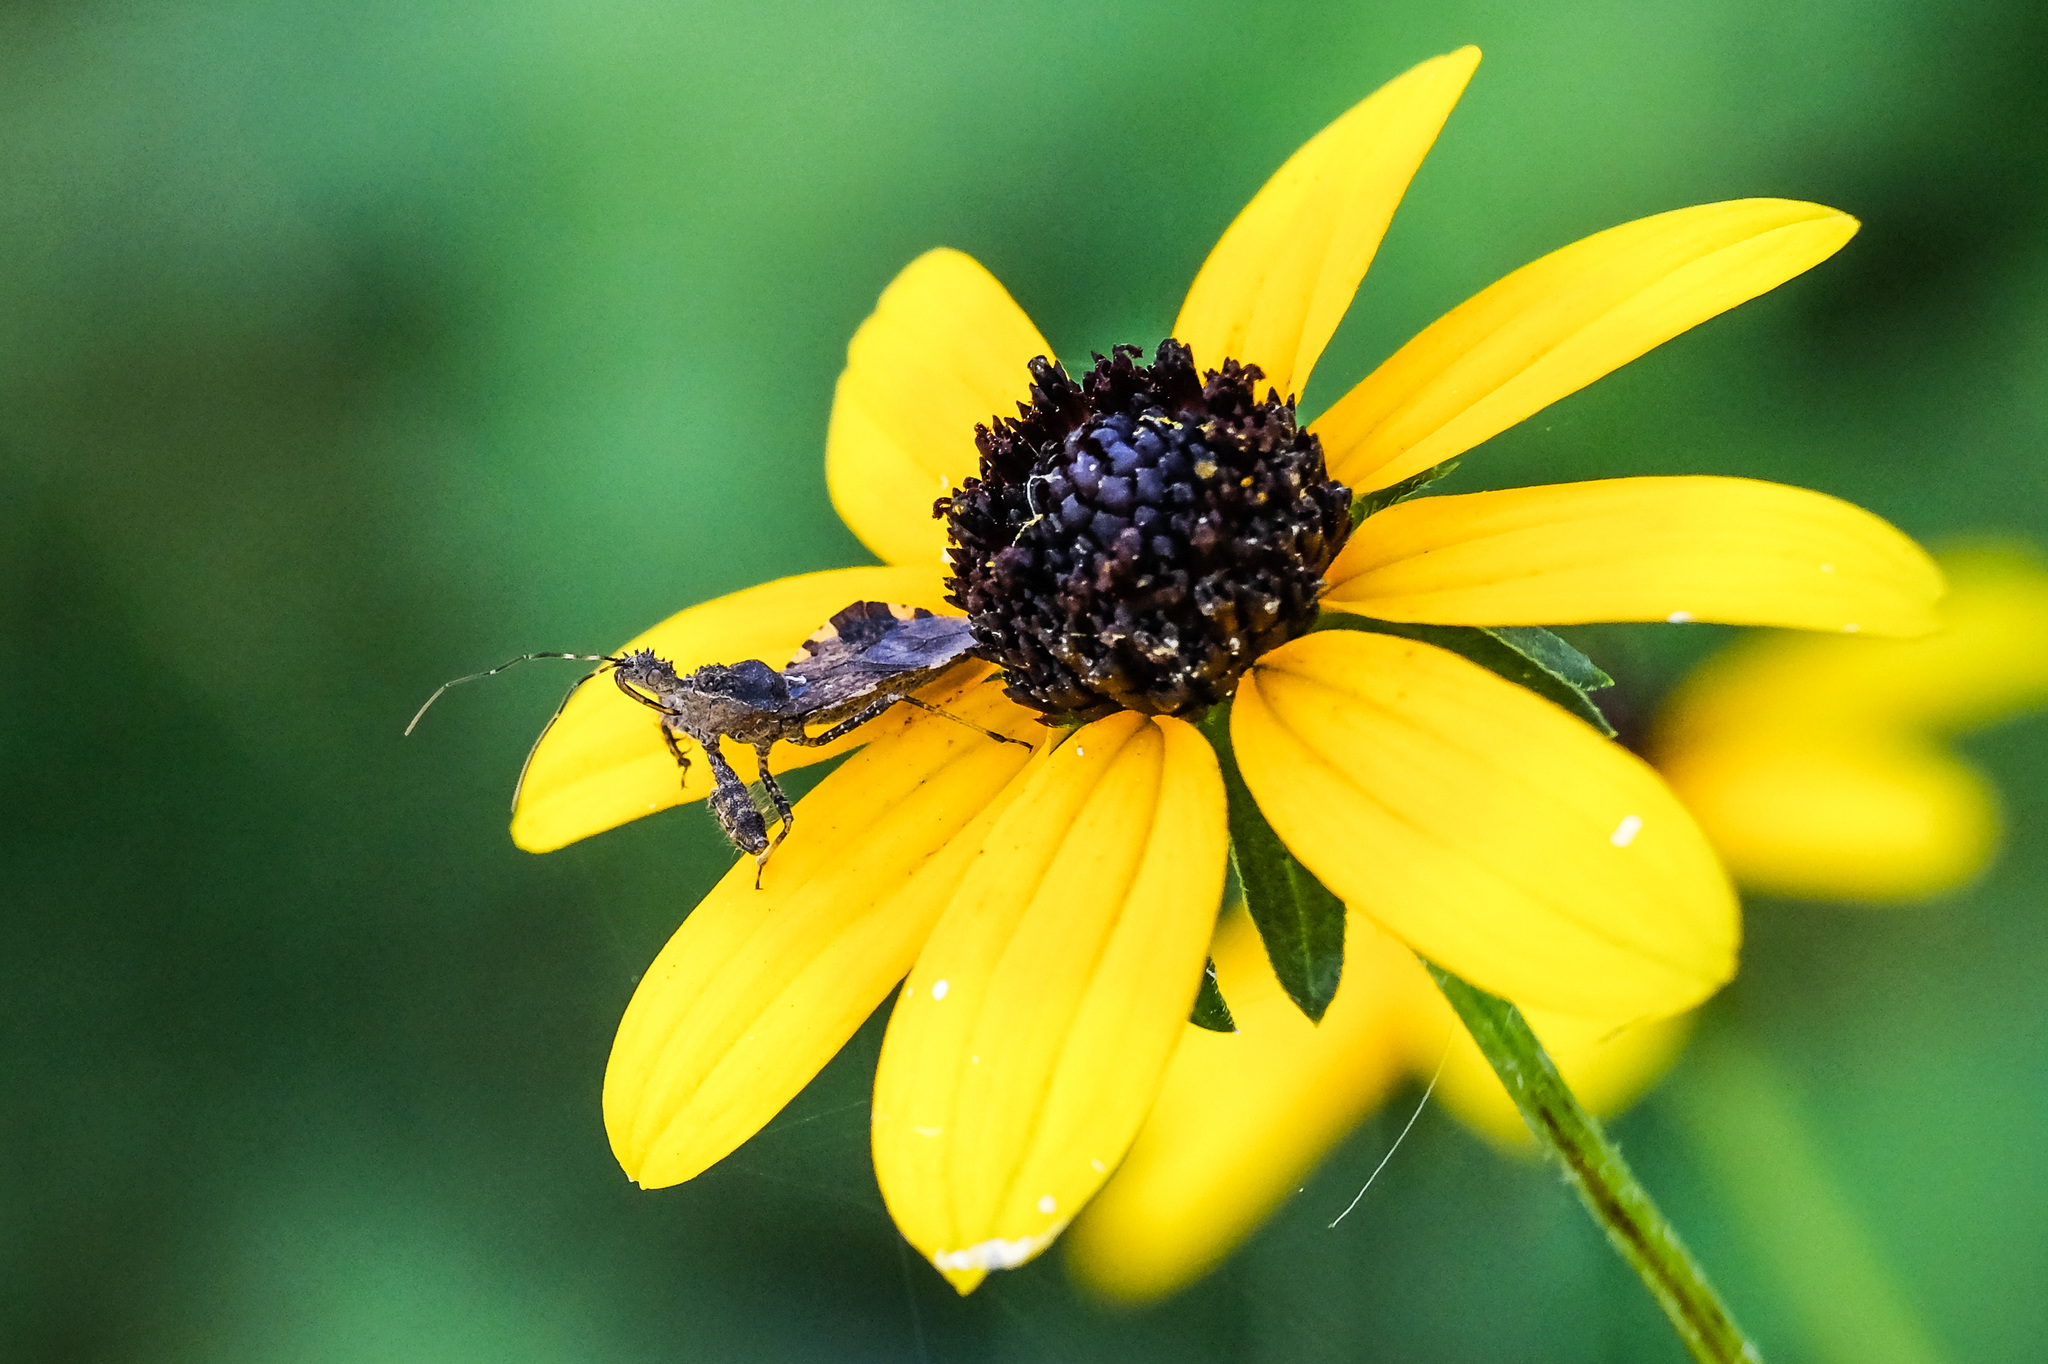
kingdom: Animalia
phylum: Arthropoda
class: Insecta
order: Hemiptera
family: Reduviidae
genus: Sinea
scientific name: Sinea spinipes
